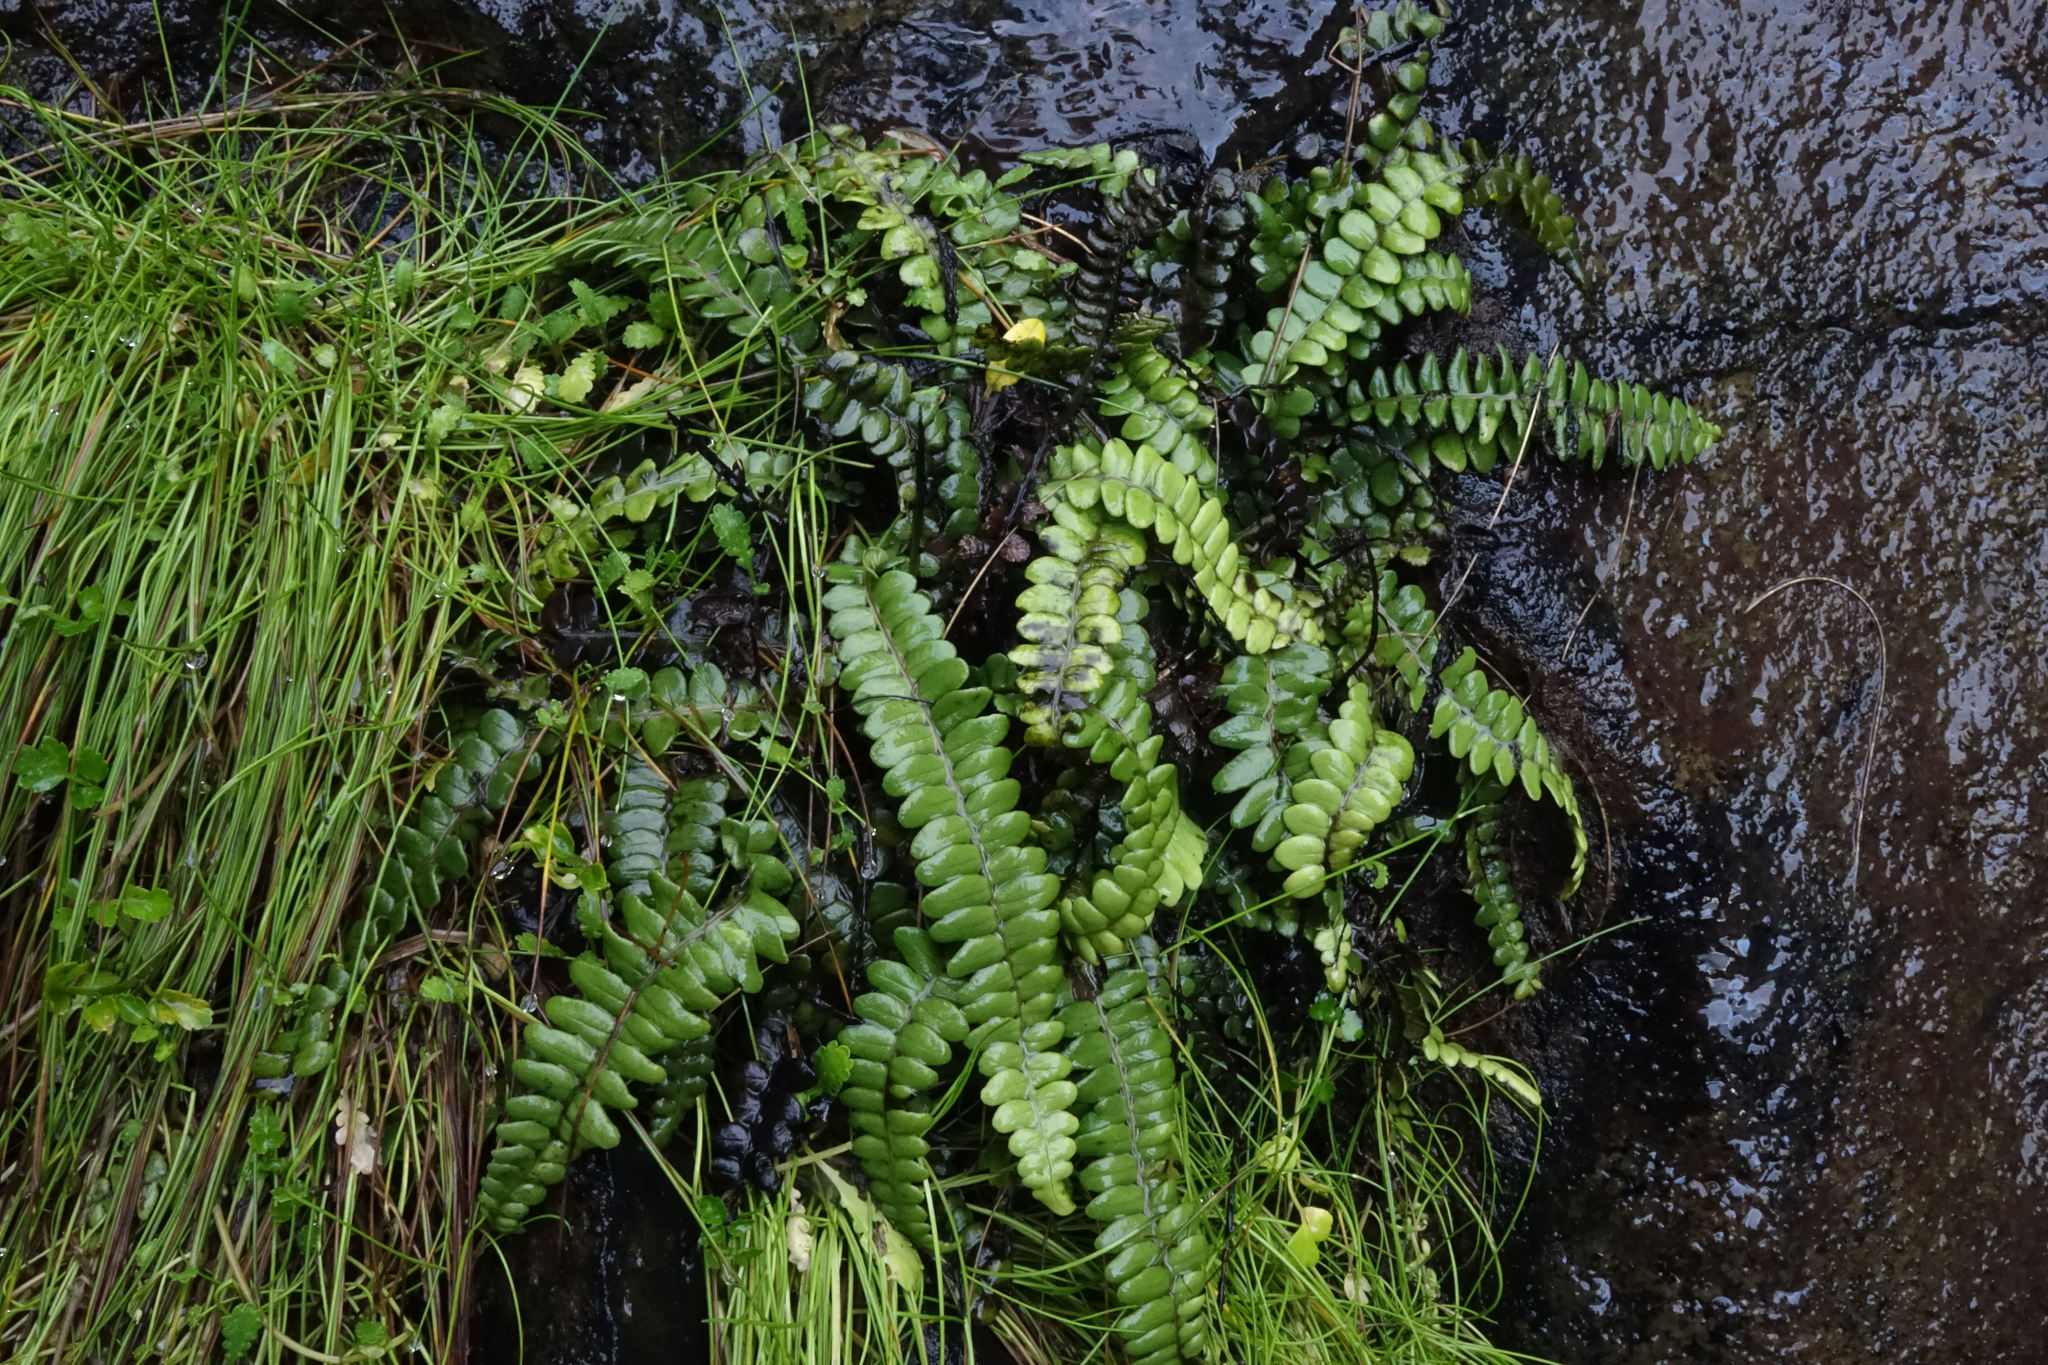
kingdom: Plantae
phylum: Tracheophyta
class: Polypodiopsida
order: Polypodiales
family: Blechnaceae
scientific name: Blechnaceae
